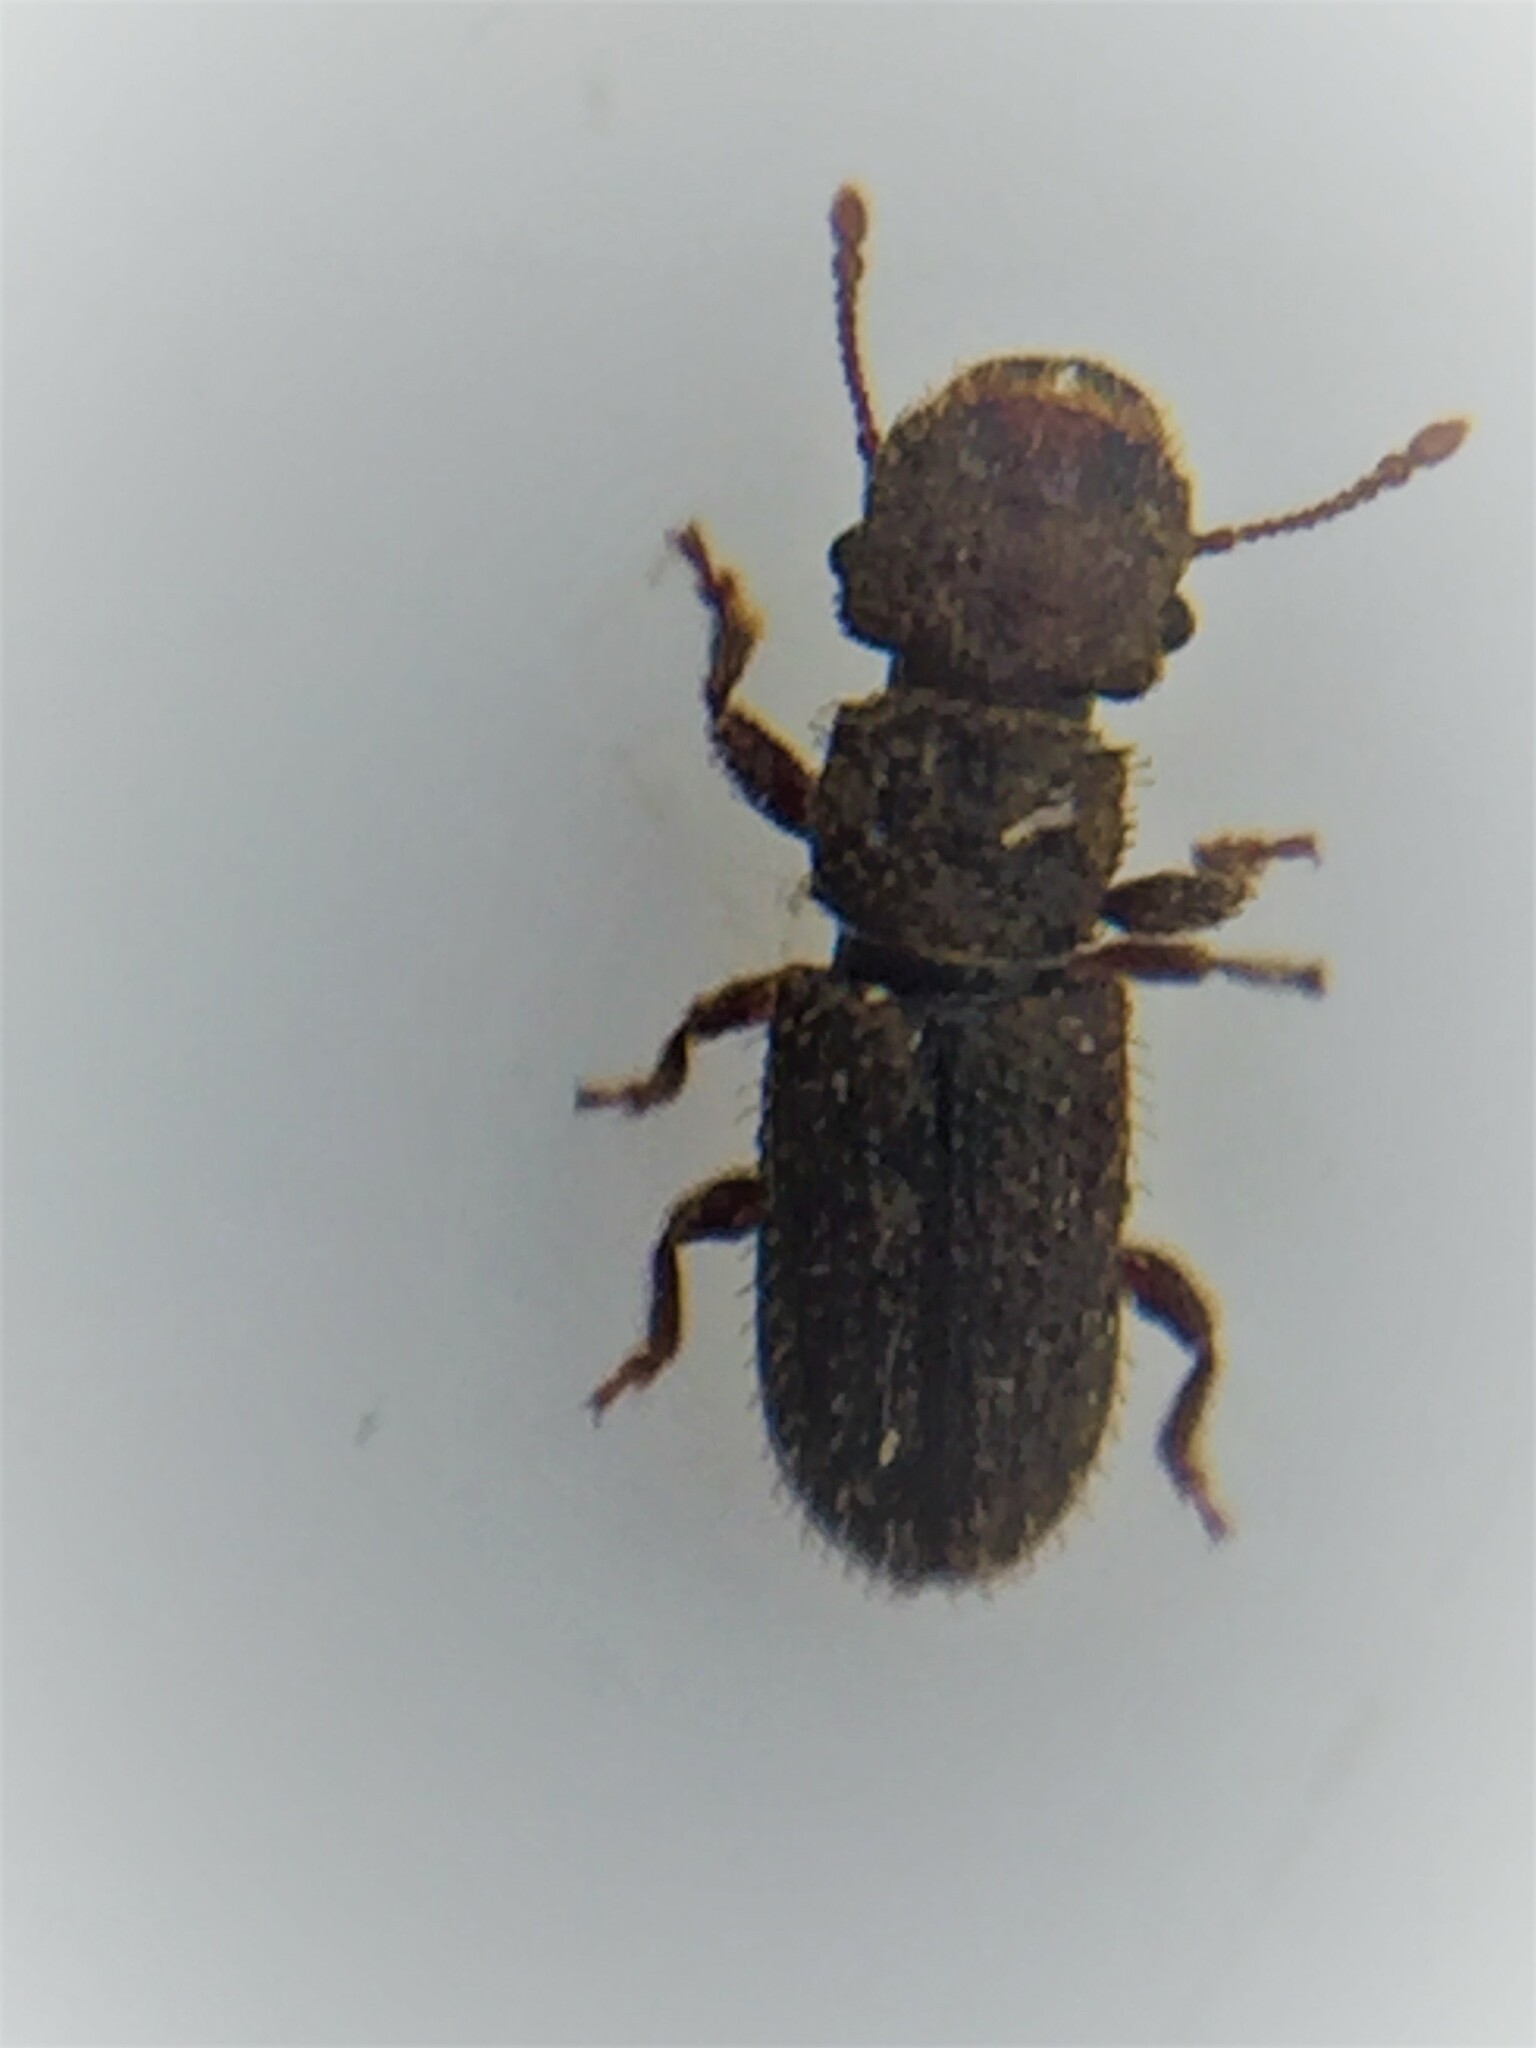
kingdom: Animalia
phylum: Arthropoda
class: Insecta
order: Coleoptera
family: Belidae
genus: Aralius
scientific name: Aralius wollastoni
